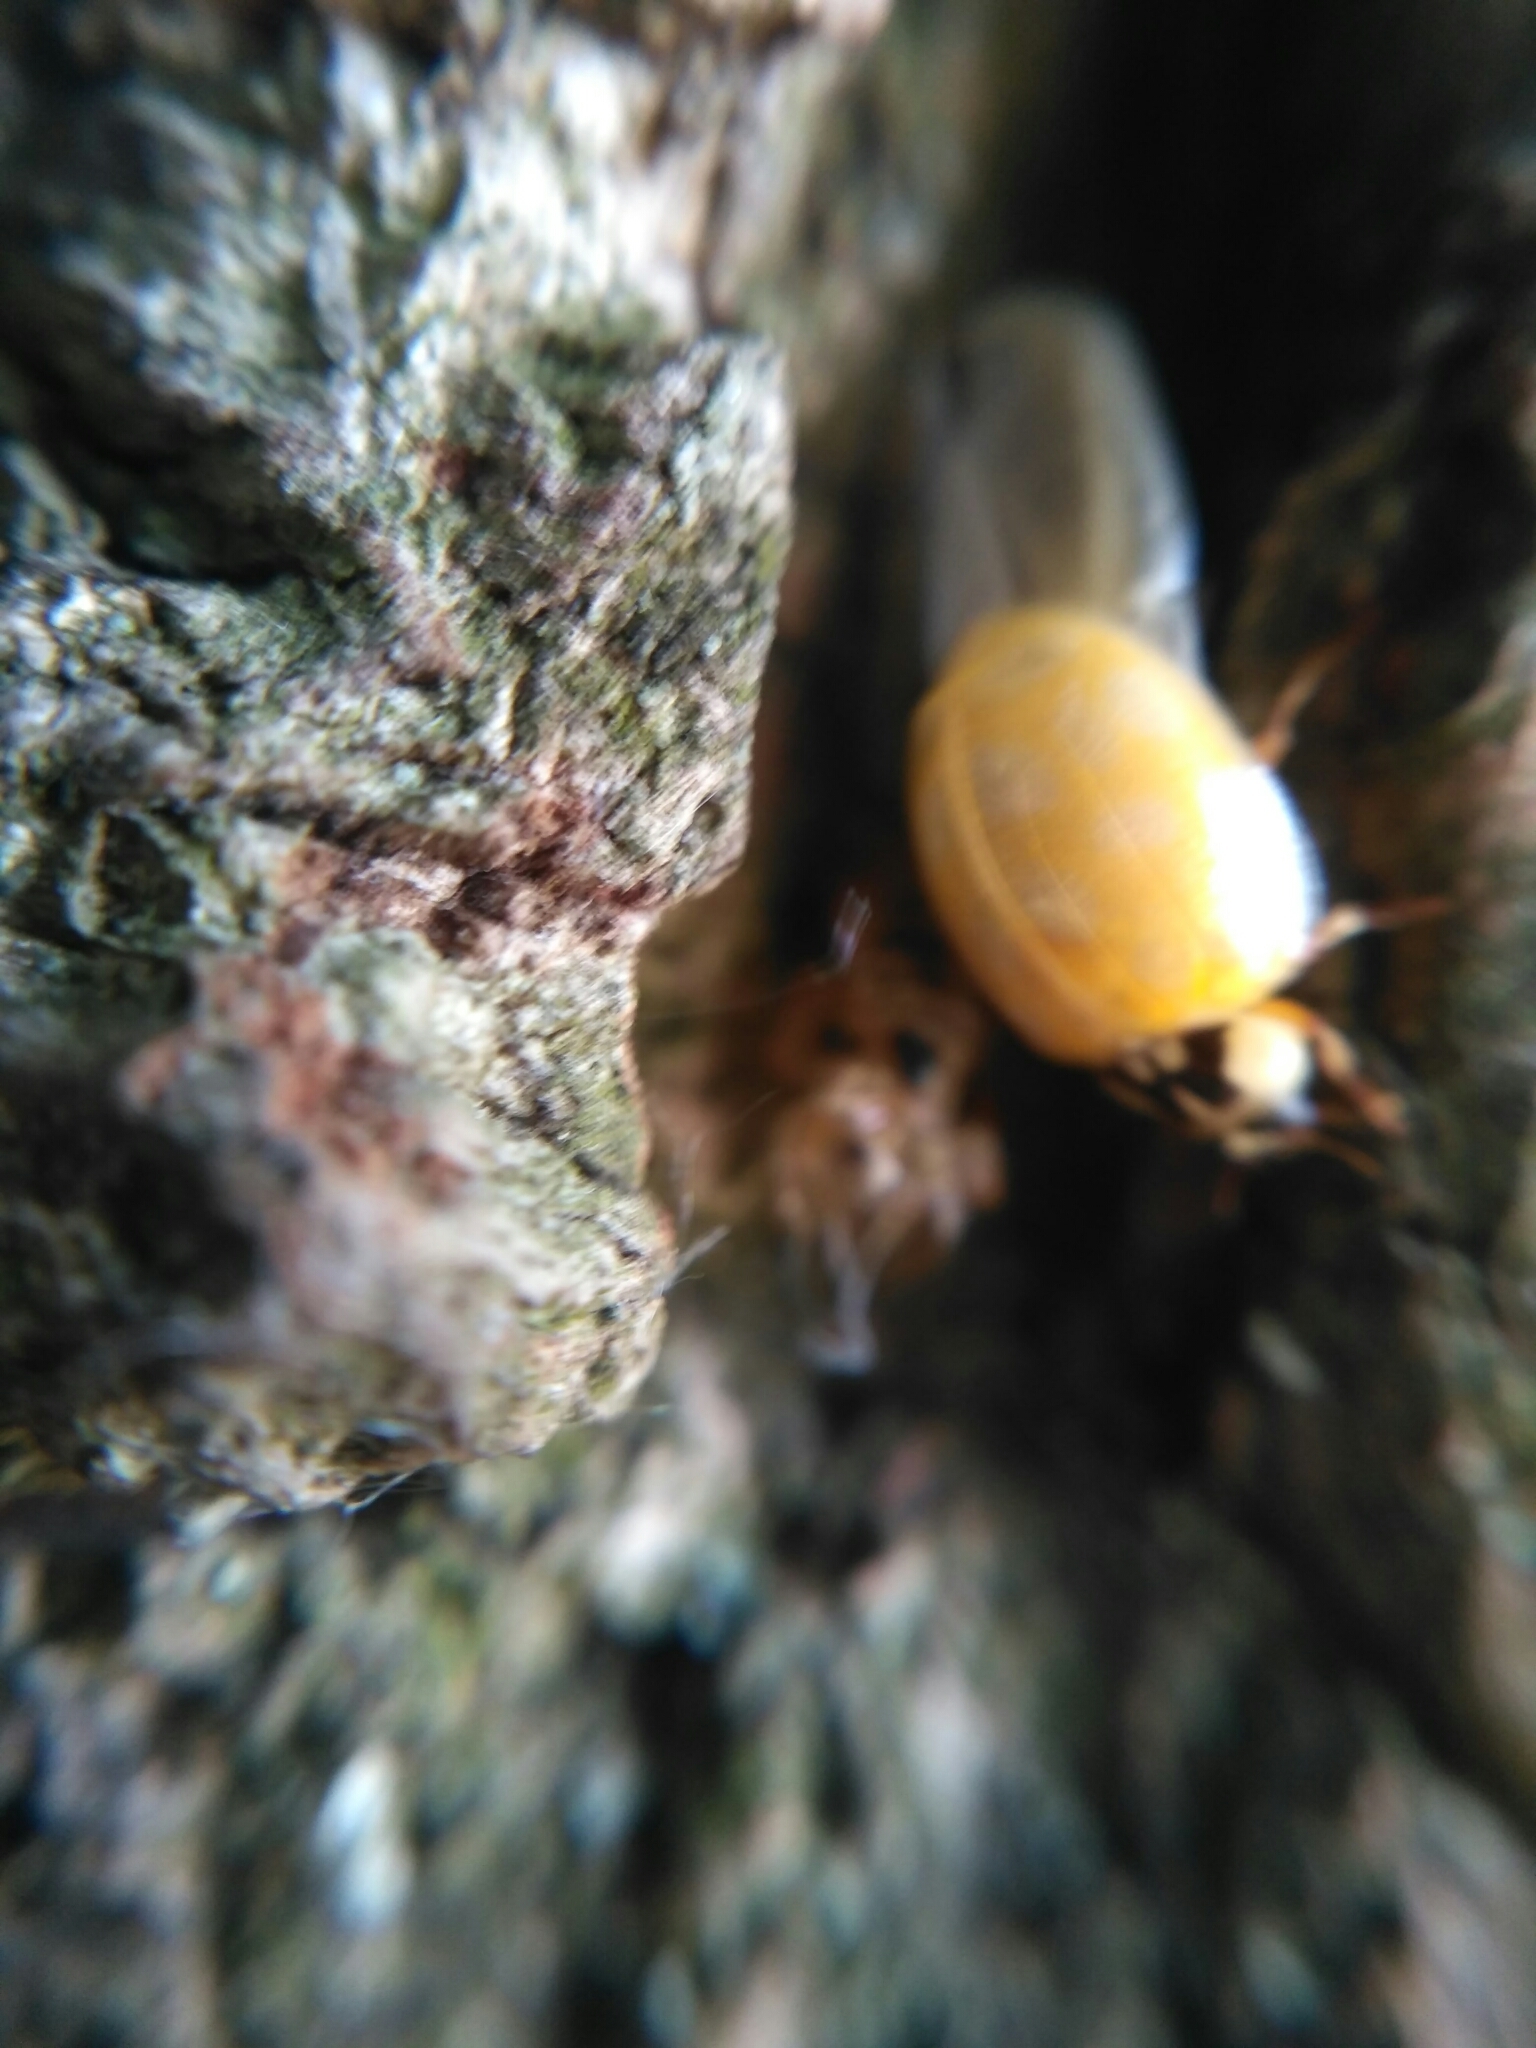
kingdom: Animalia
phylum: Arthropoda
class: Insecta
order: Coleoptera
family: Coccinellidae
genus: Harmonia
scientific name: Harmonia axyridis
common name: Harlequin ladybird
